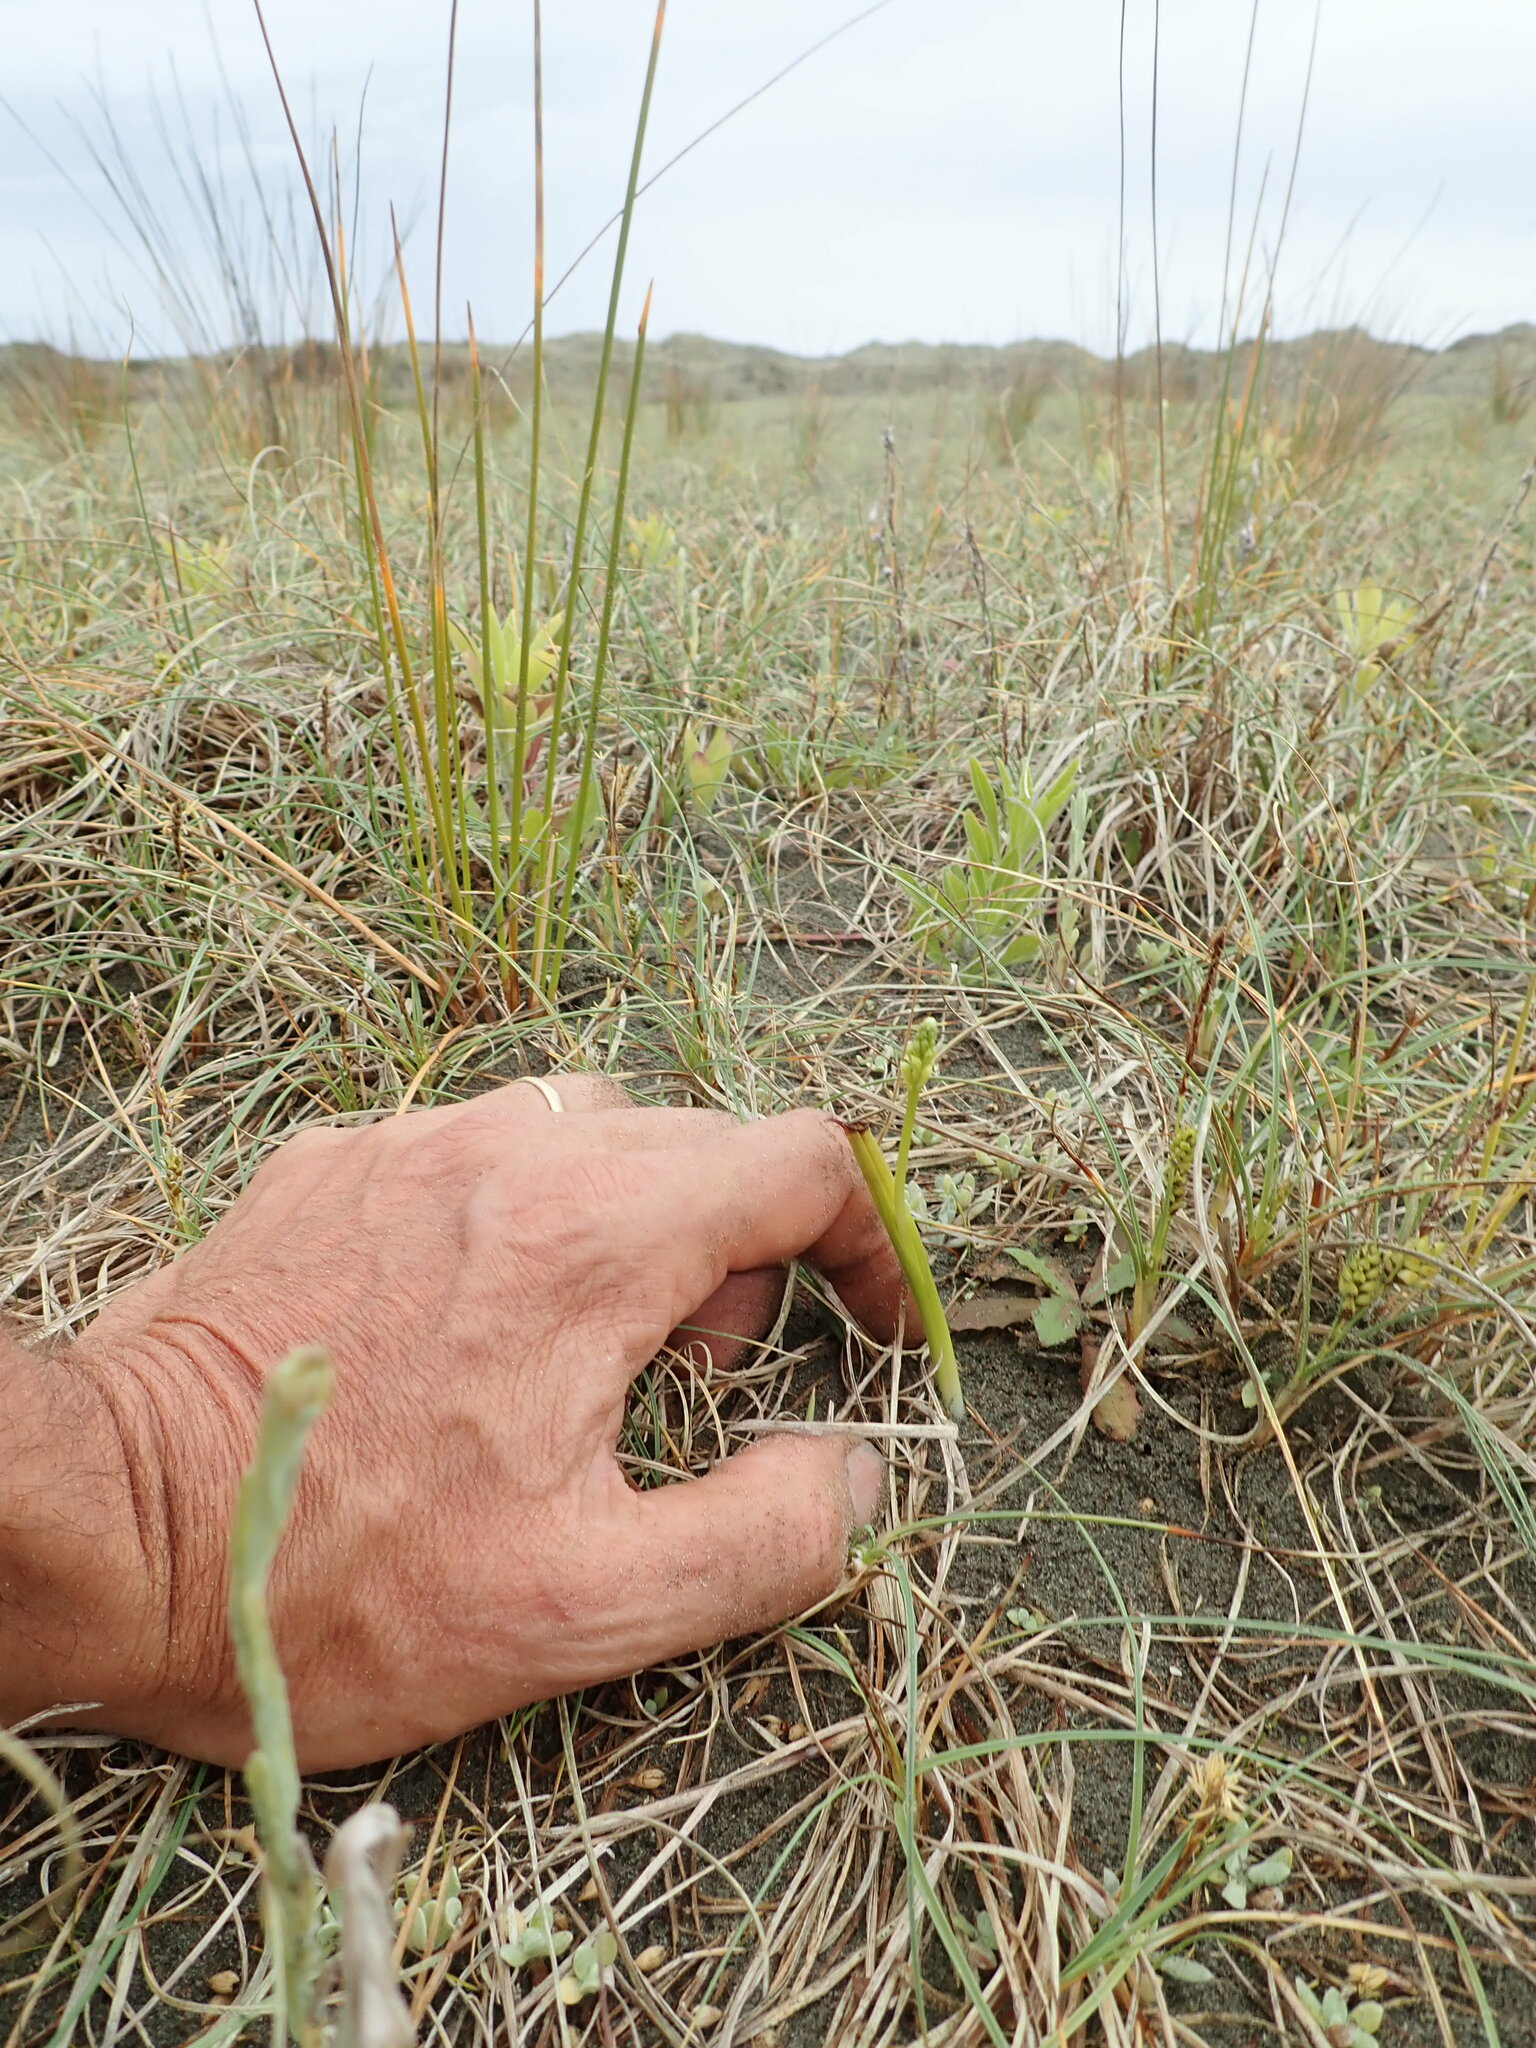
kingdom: Plantae
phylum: Tracheophyta
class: Liliopsida
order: Asparagales
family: Orchidaceae
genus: Microtis
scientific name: Microtis unifolia
